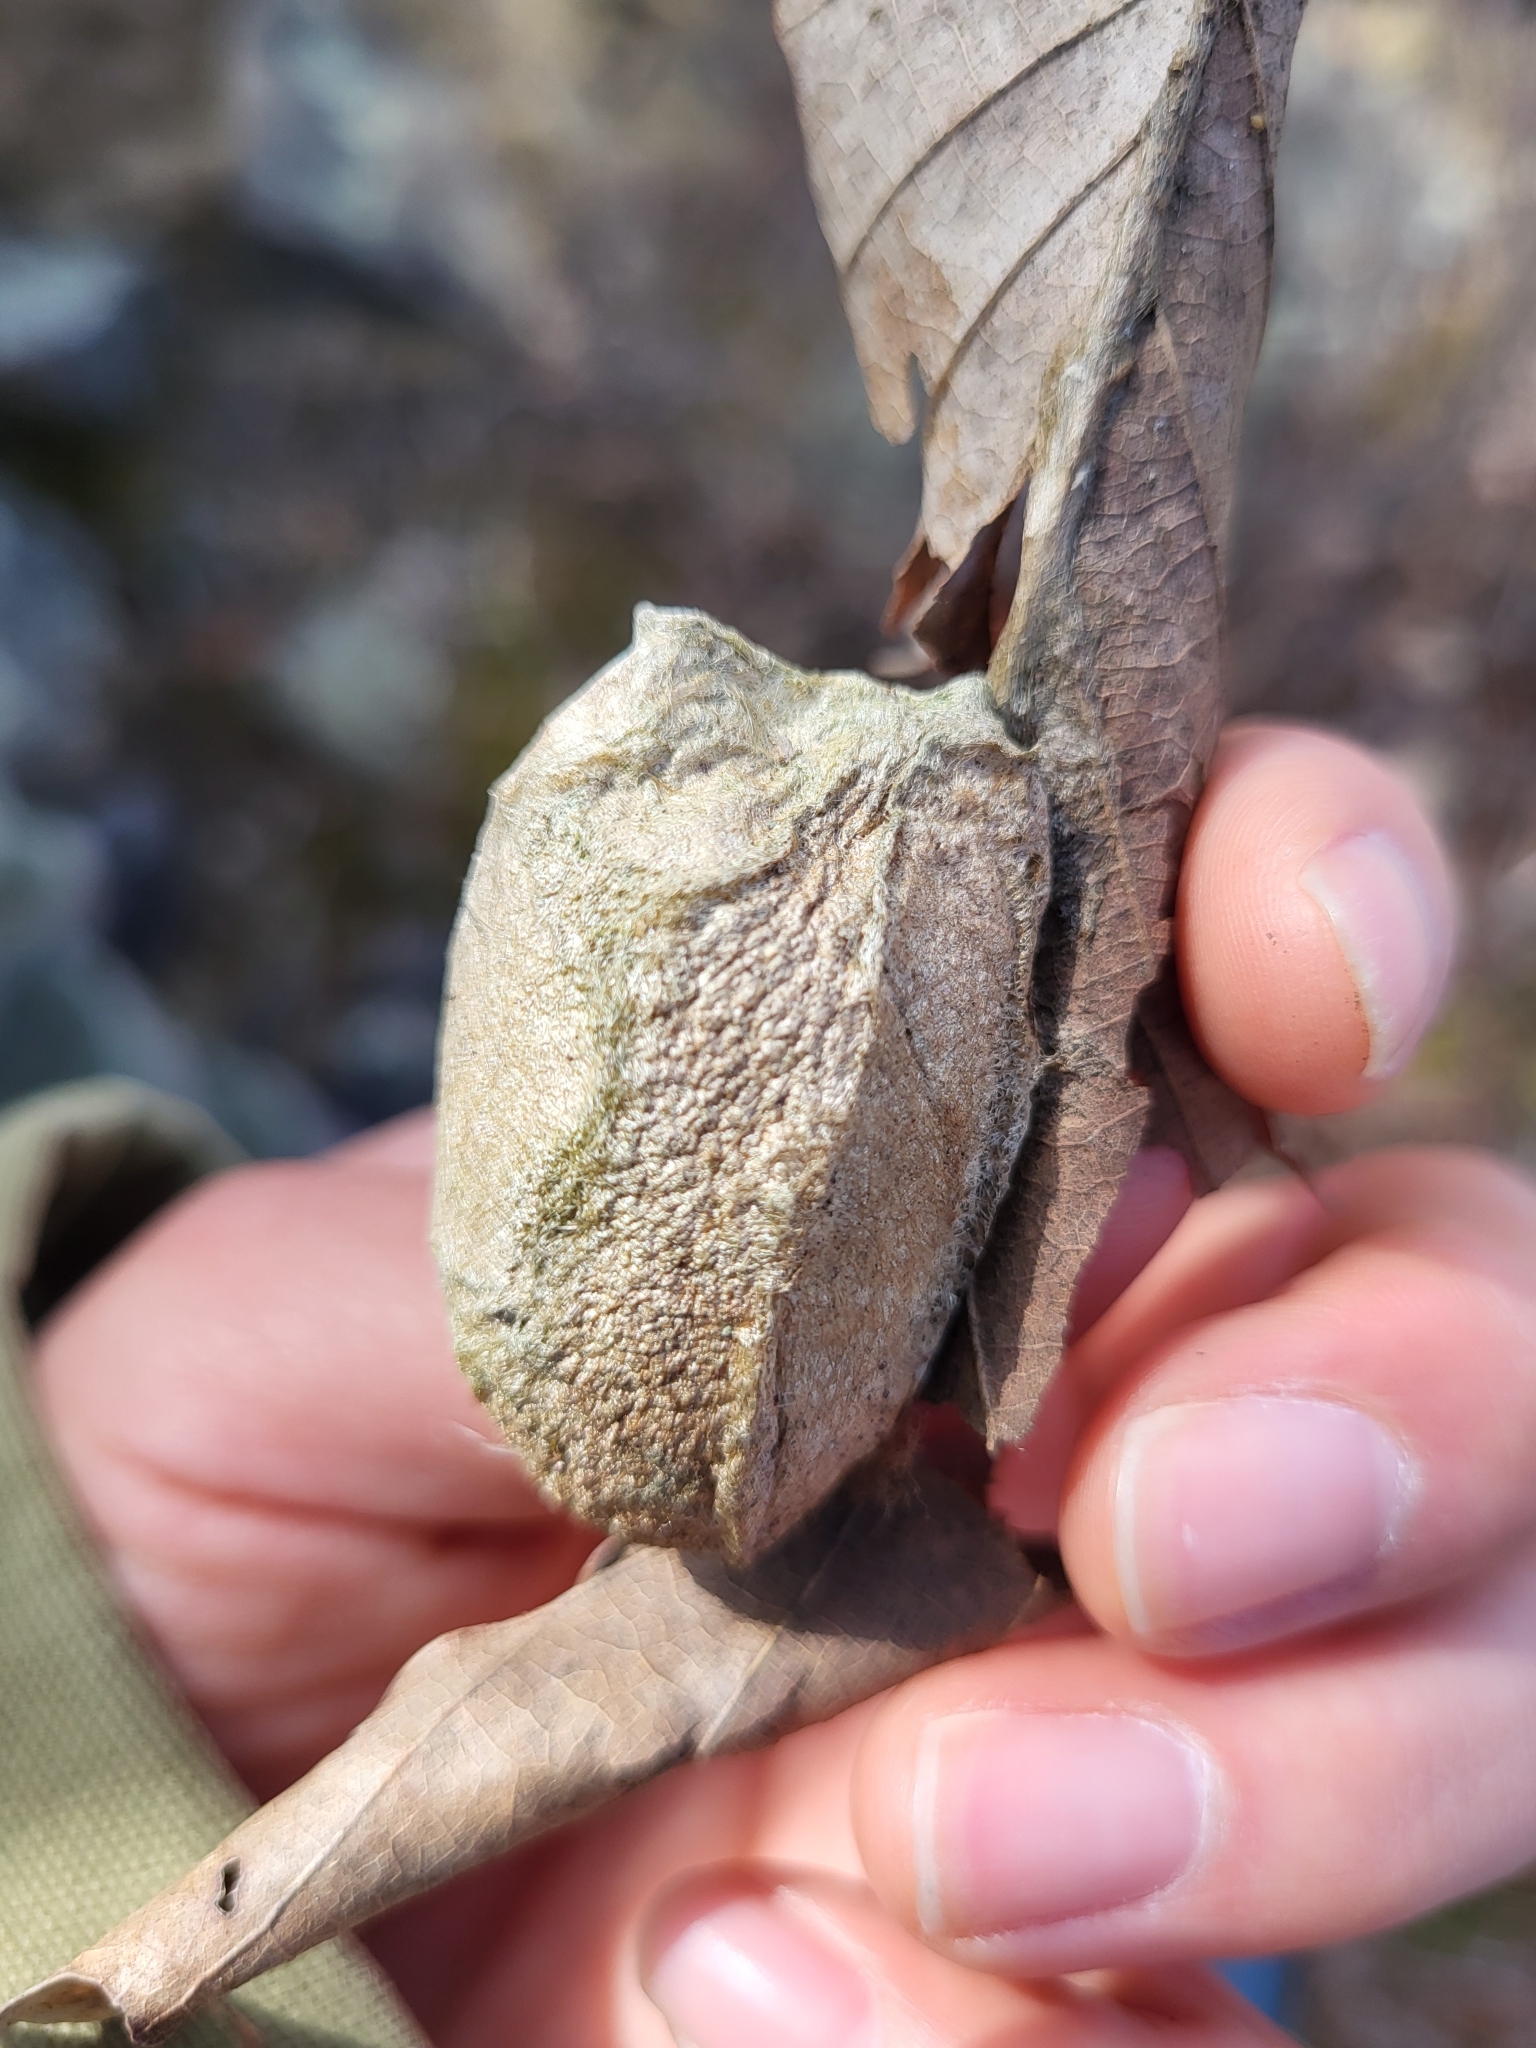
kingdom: Animalia
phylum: Arthropoda
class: Insecta
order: Lepidoptera
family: Saturniidae
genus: Antheraea
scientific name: Antheraea polyphemus
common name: Polyphemus moth
